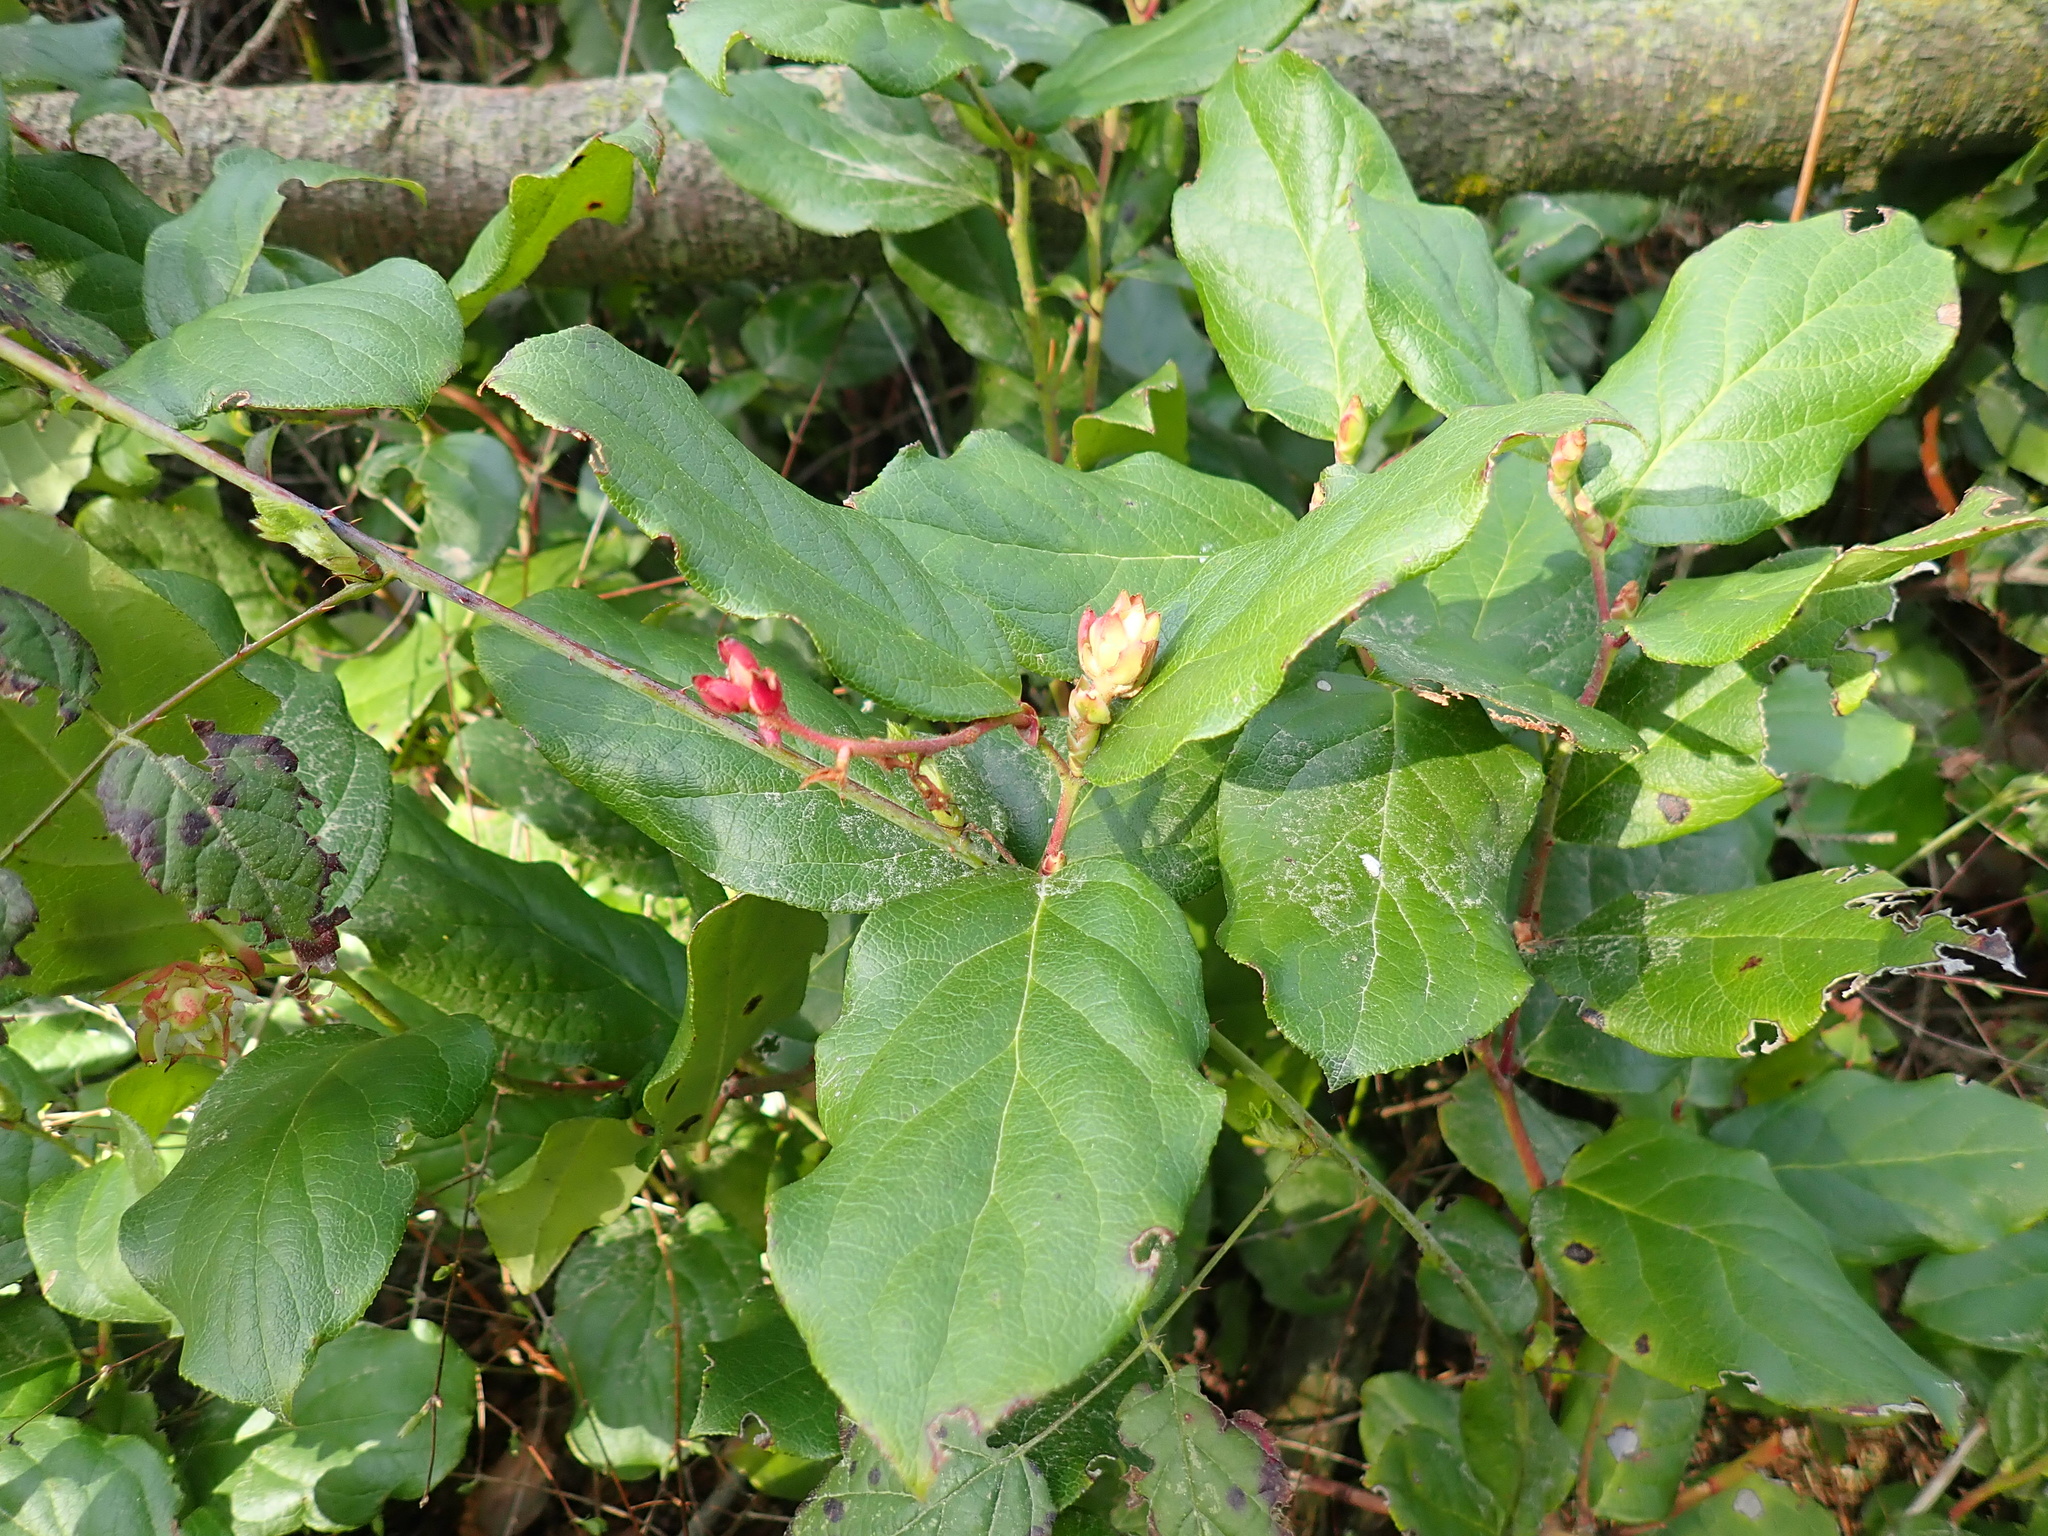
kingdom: Plantae
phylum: Tracheophyta
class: Magnoliopsida
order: Ericales
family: Ericaceae
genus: Gaultheria
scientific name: Gaultheria shallon
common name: Shallon
